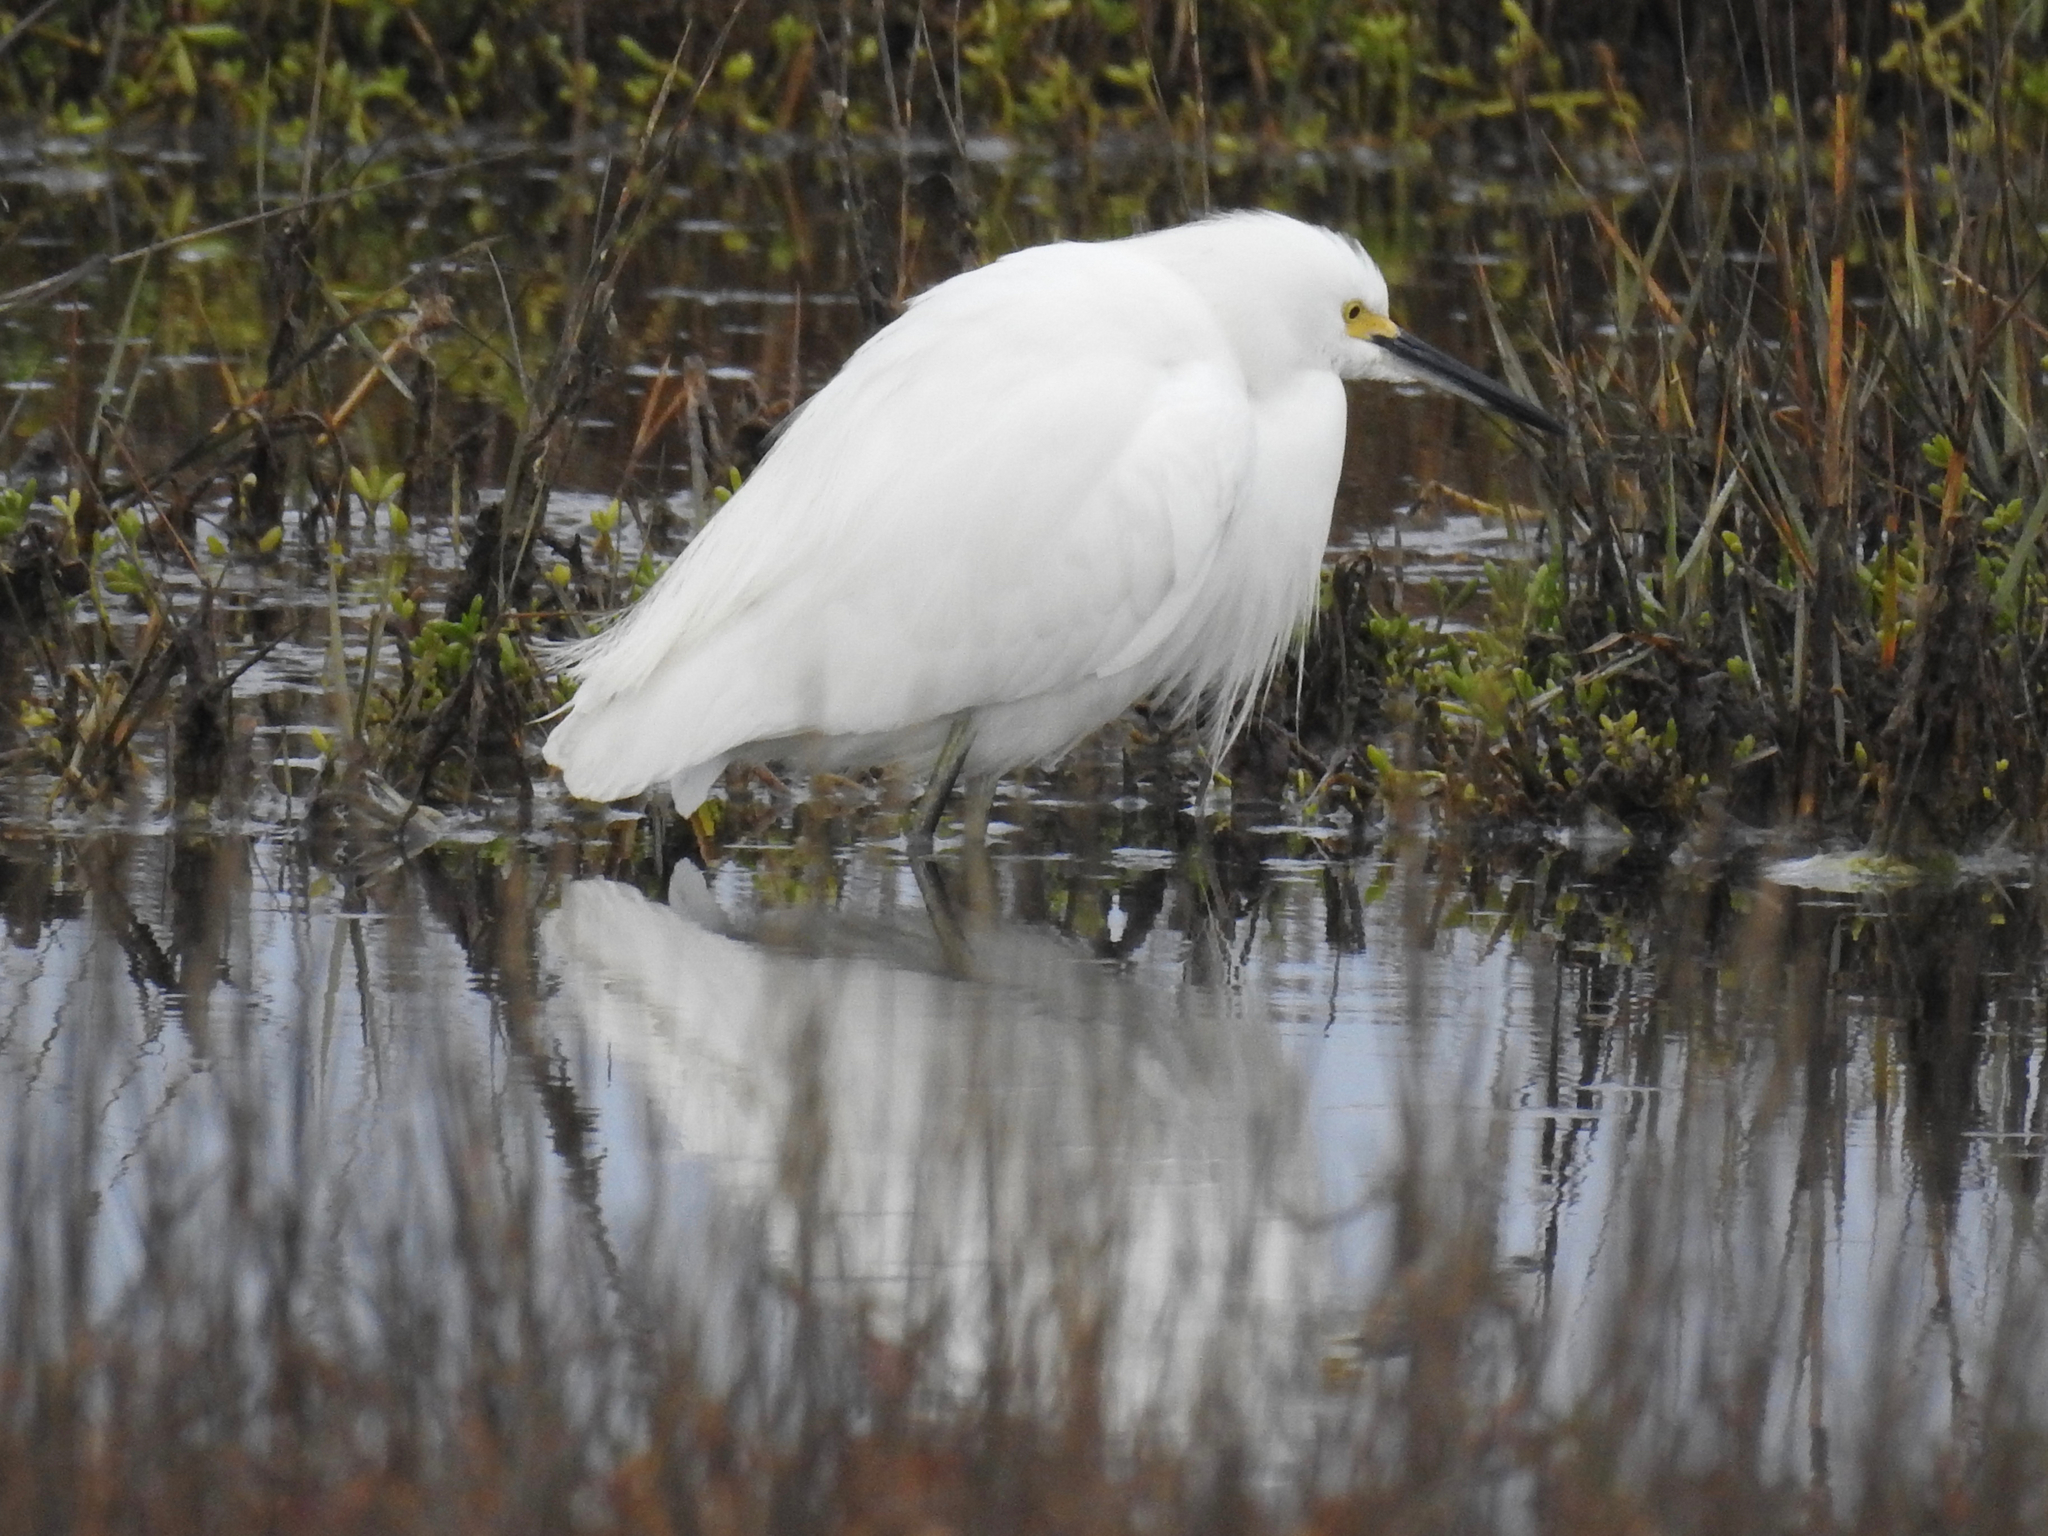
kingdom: Animalia
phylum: Chordata
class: Aves
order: Pelecaniformes
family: Ardeidae
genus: Egretta
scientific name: Egretta thula
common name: Snowy egret
